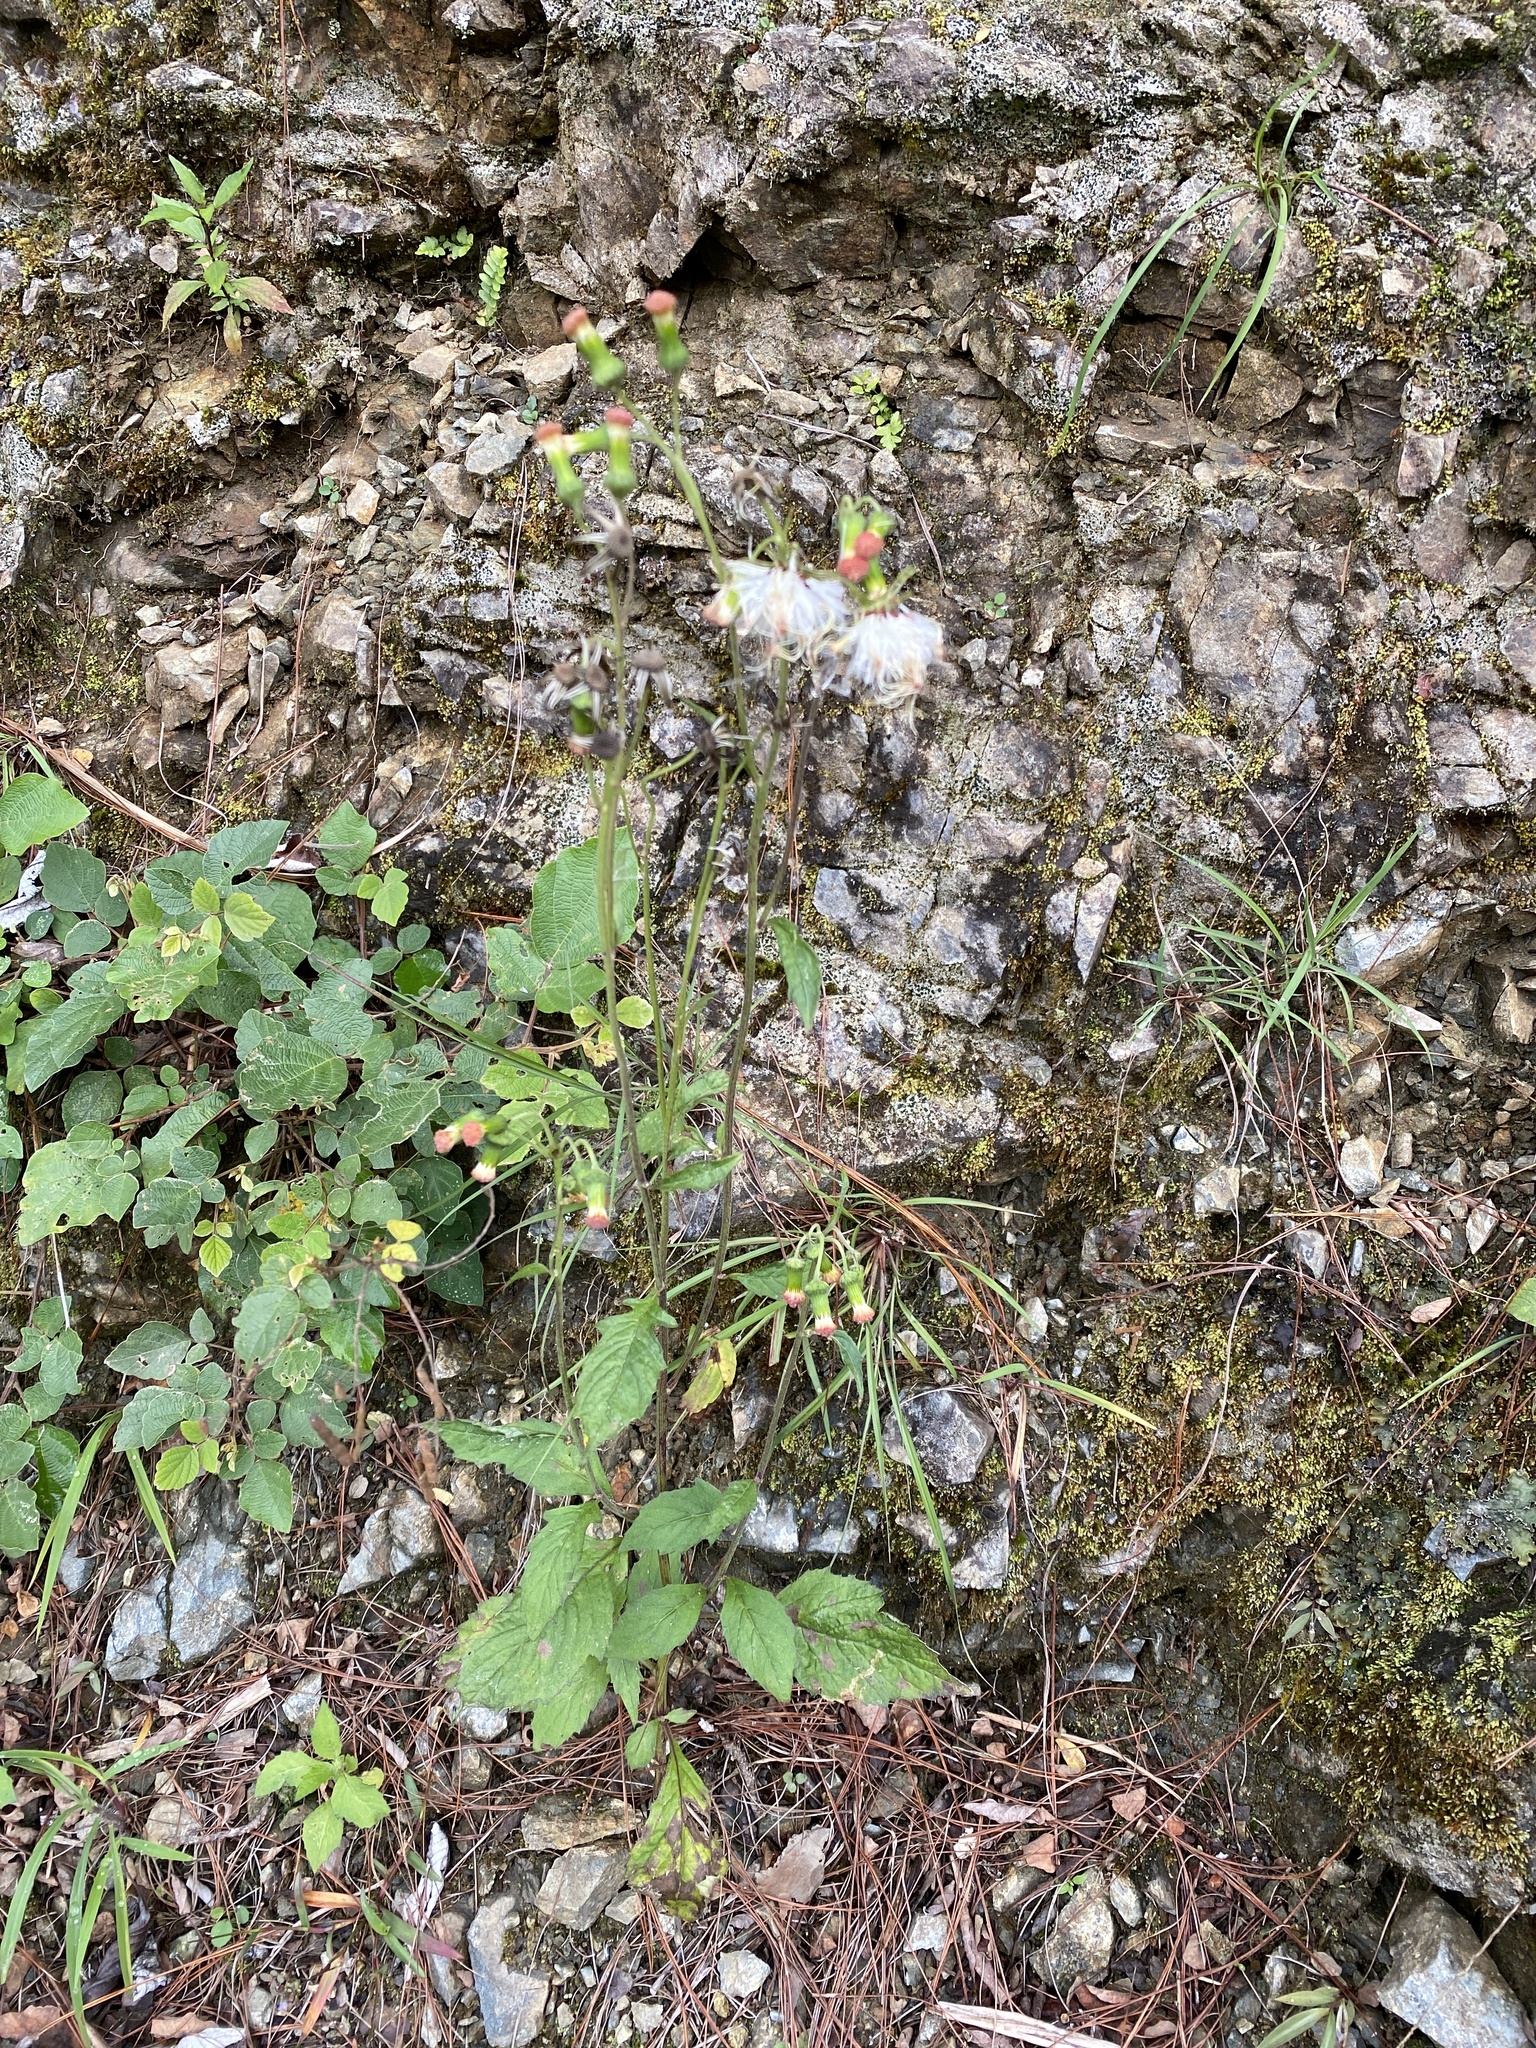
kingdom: Plantae
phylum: Tracheophyta
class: Magnoliopsida
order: Asterales
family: Asteraceae
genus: Crassocephalum
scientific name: Crassocephalum crepidioides
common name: Redflower ragleaf
